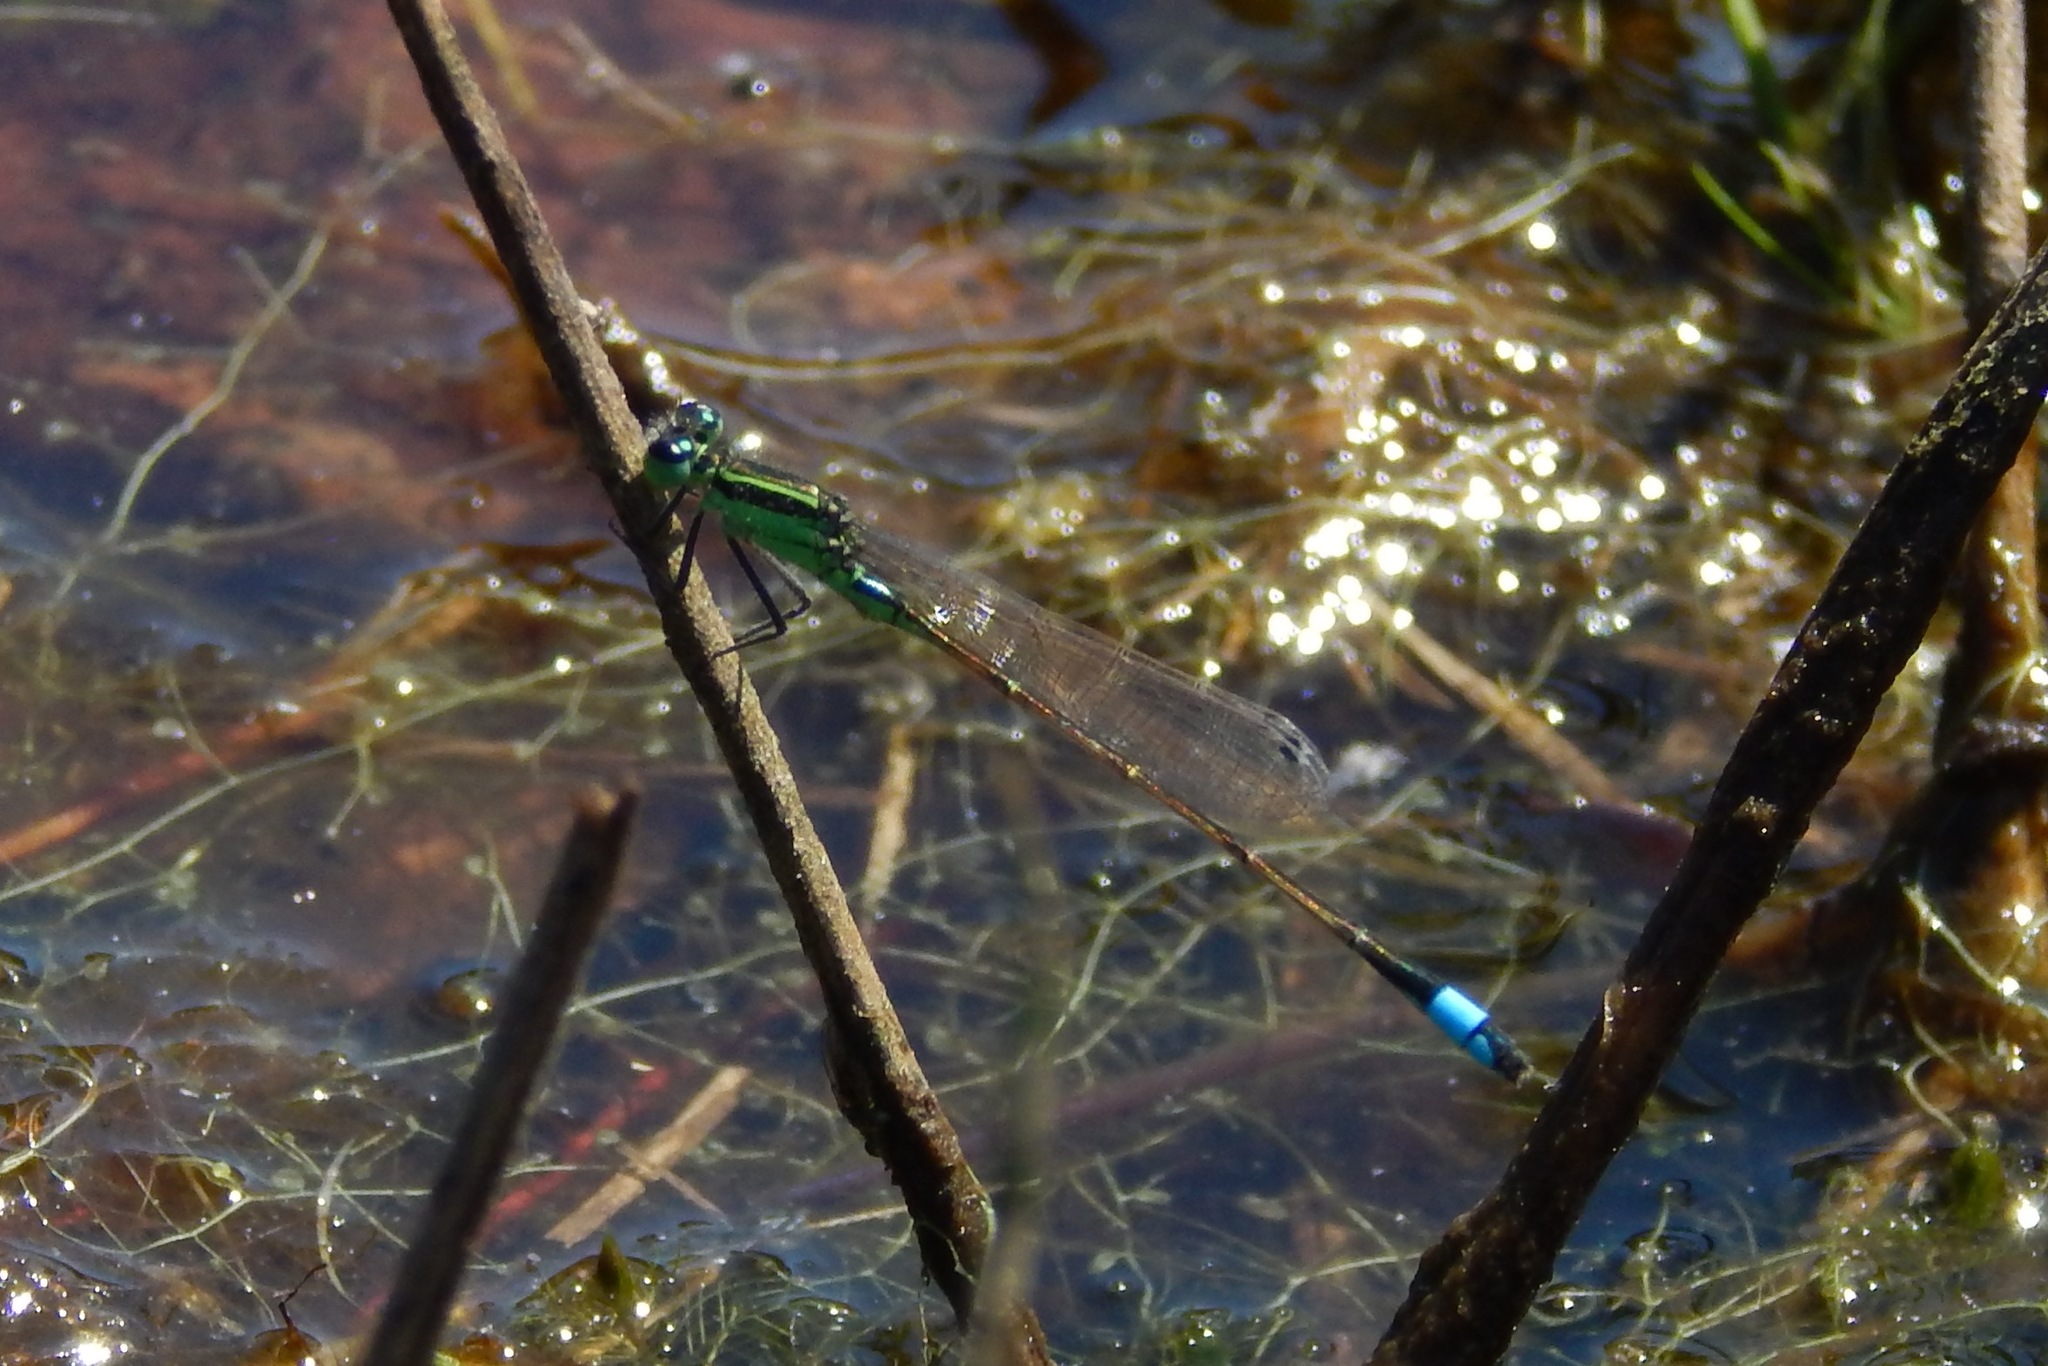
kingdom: Animalia
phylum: Arthropoda
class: Insecta
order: Odonata
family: Coenagrionidae
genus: Ischnura
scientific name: Ischnura ramburii
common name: Rambur's forktail
